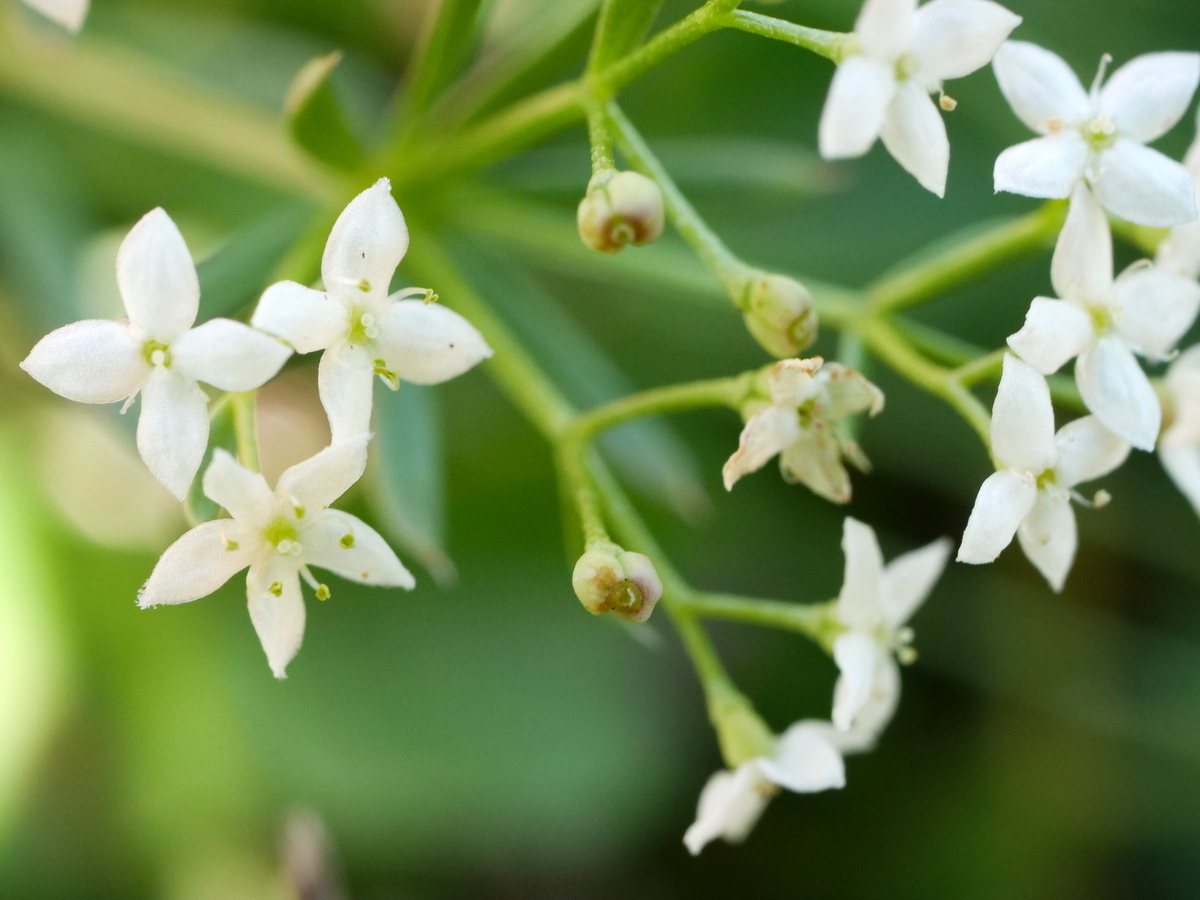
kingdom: Plantae
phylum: Tracheophyta
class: Magnoliopsida
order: Gentianales
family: Rubiaceae
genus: Galium
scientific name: Galium anisophyllon
